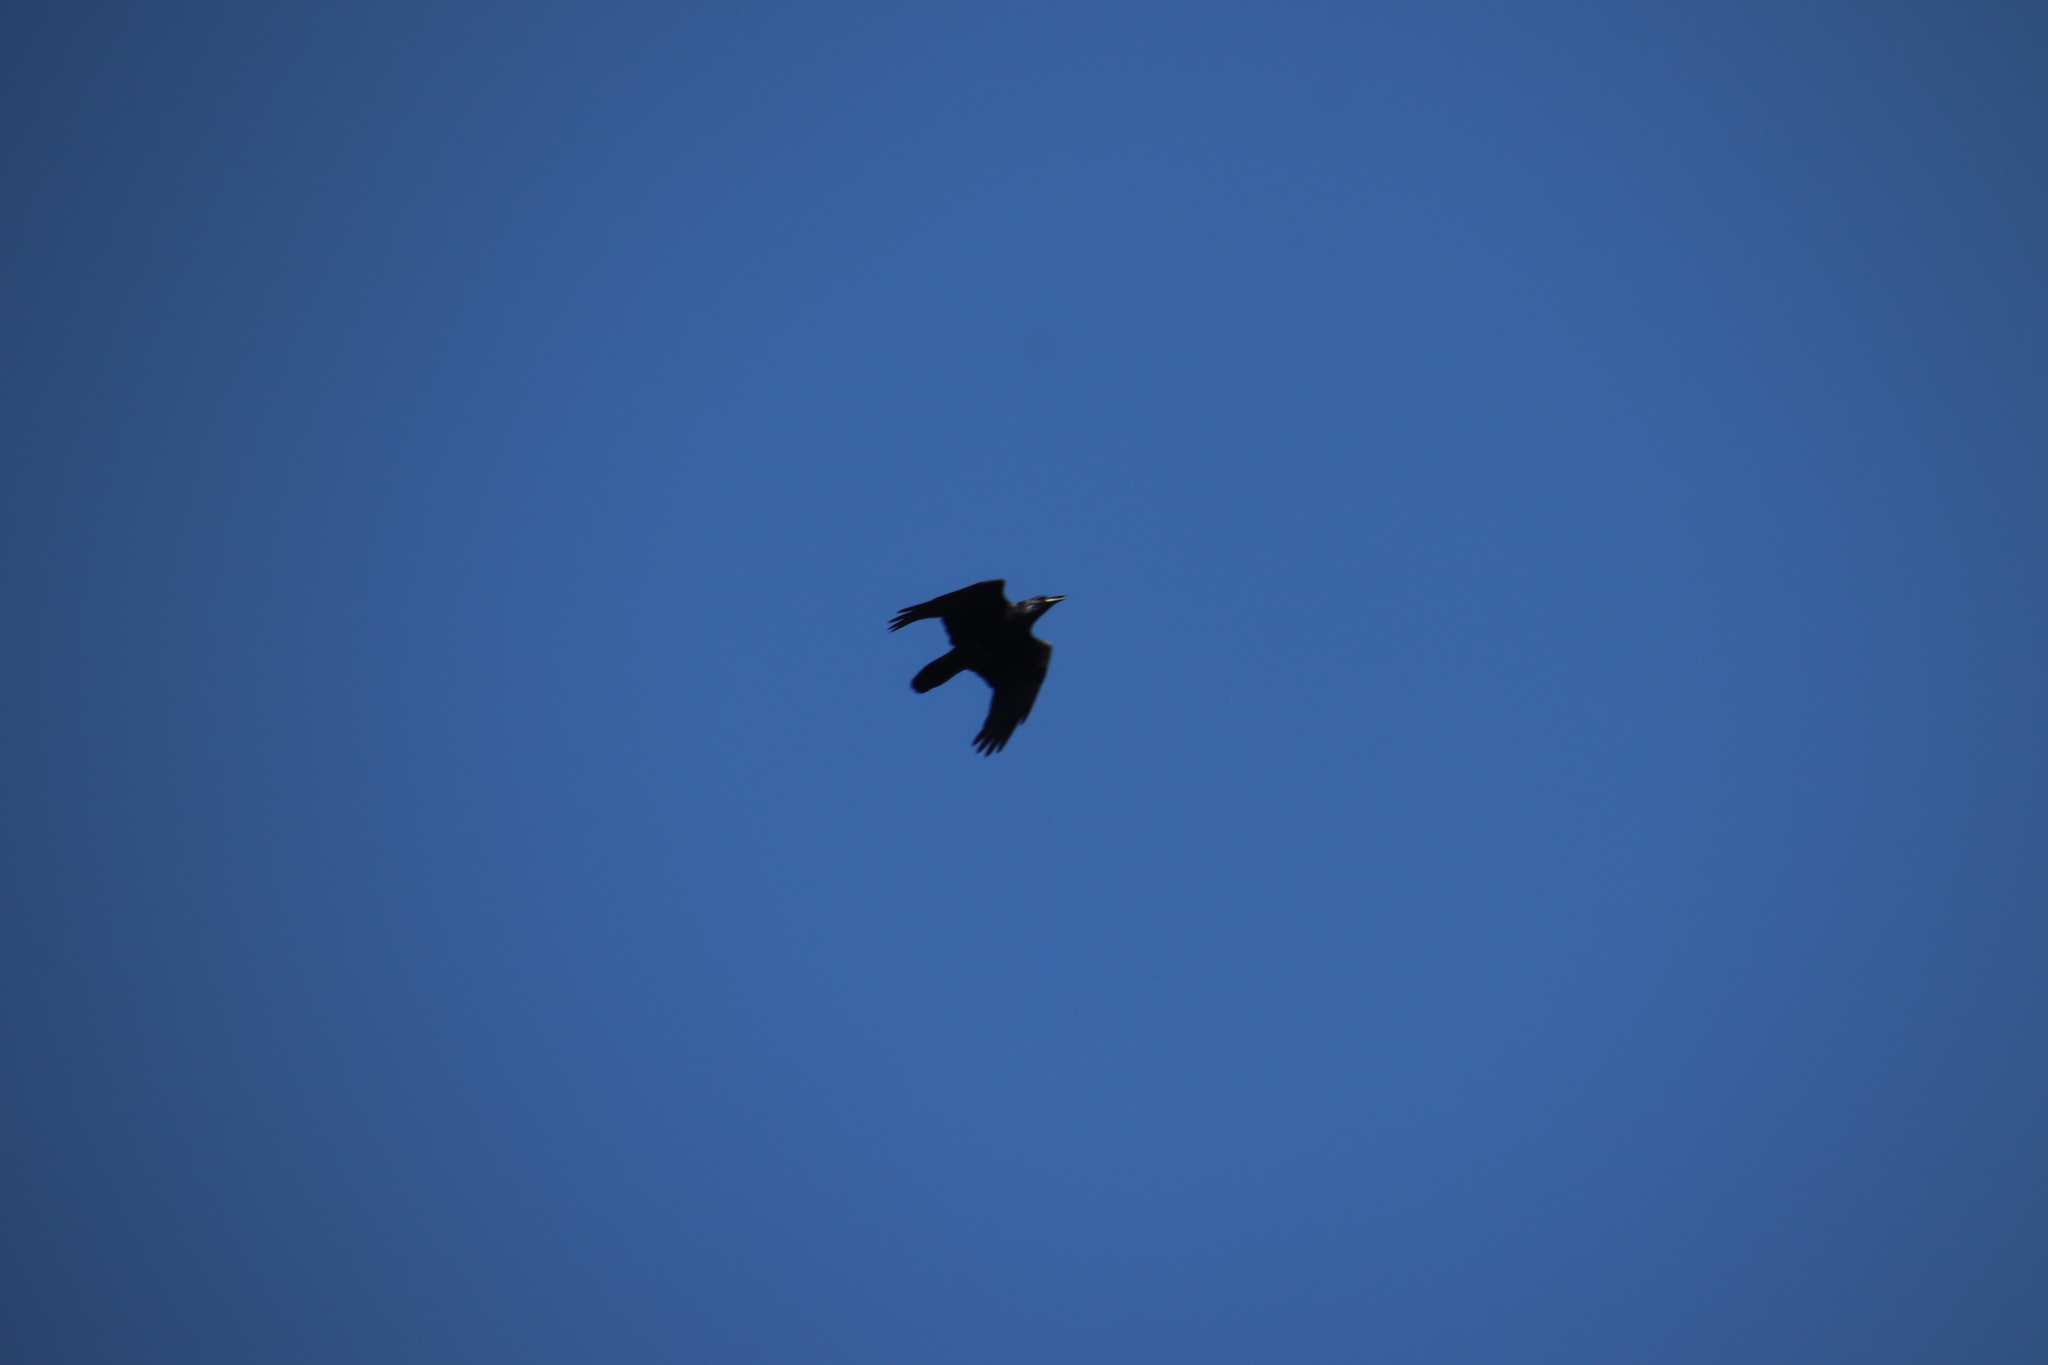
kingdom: Animalia
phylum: Chordata
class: Aves
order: Passeriformes
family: Corvidae
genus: Corvus
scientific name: Corvus corax
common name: Common raven
